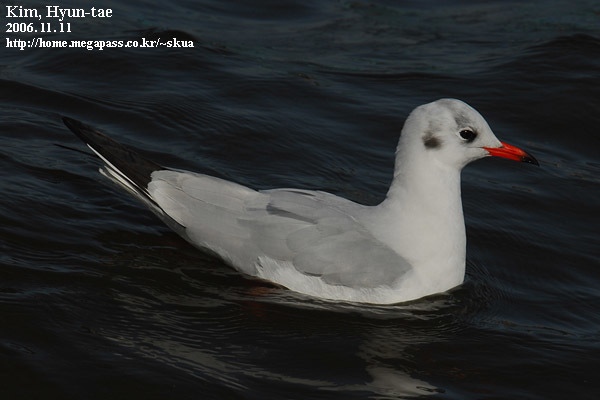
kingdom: Animalia
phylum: Chordata
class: Aves
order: Charadriiformes
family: Laridae
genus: Chroicocephalus
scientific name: Chroicocephalus ridibundus
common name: Black-headed gull
